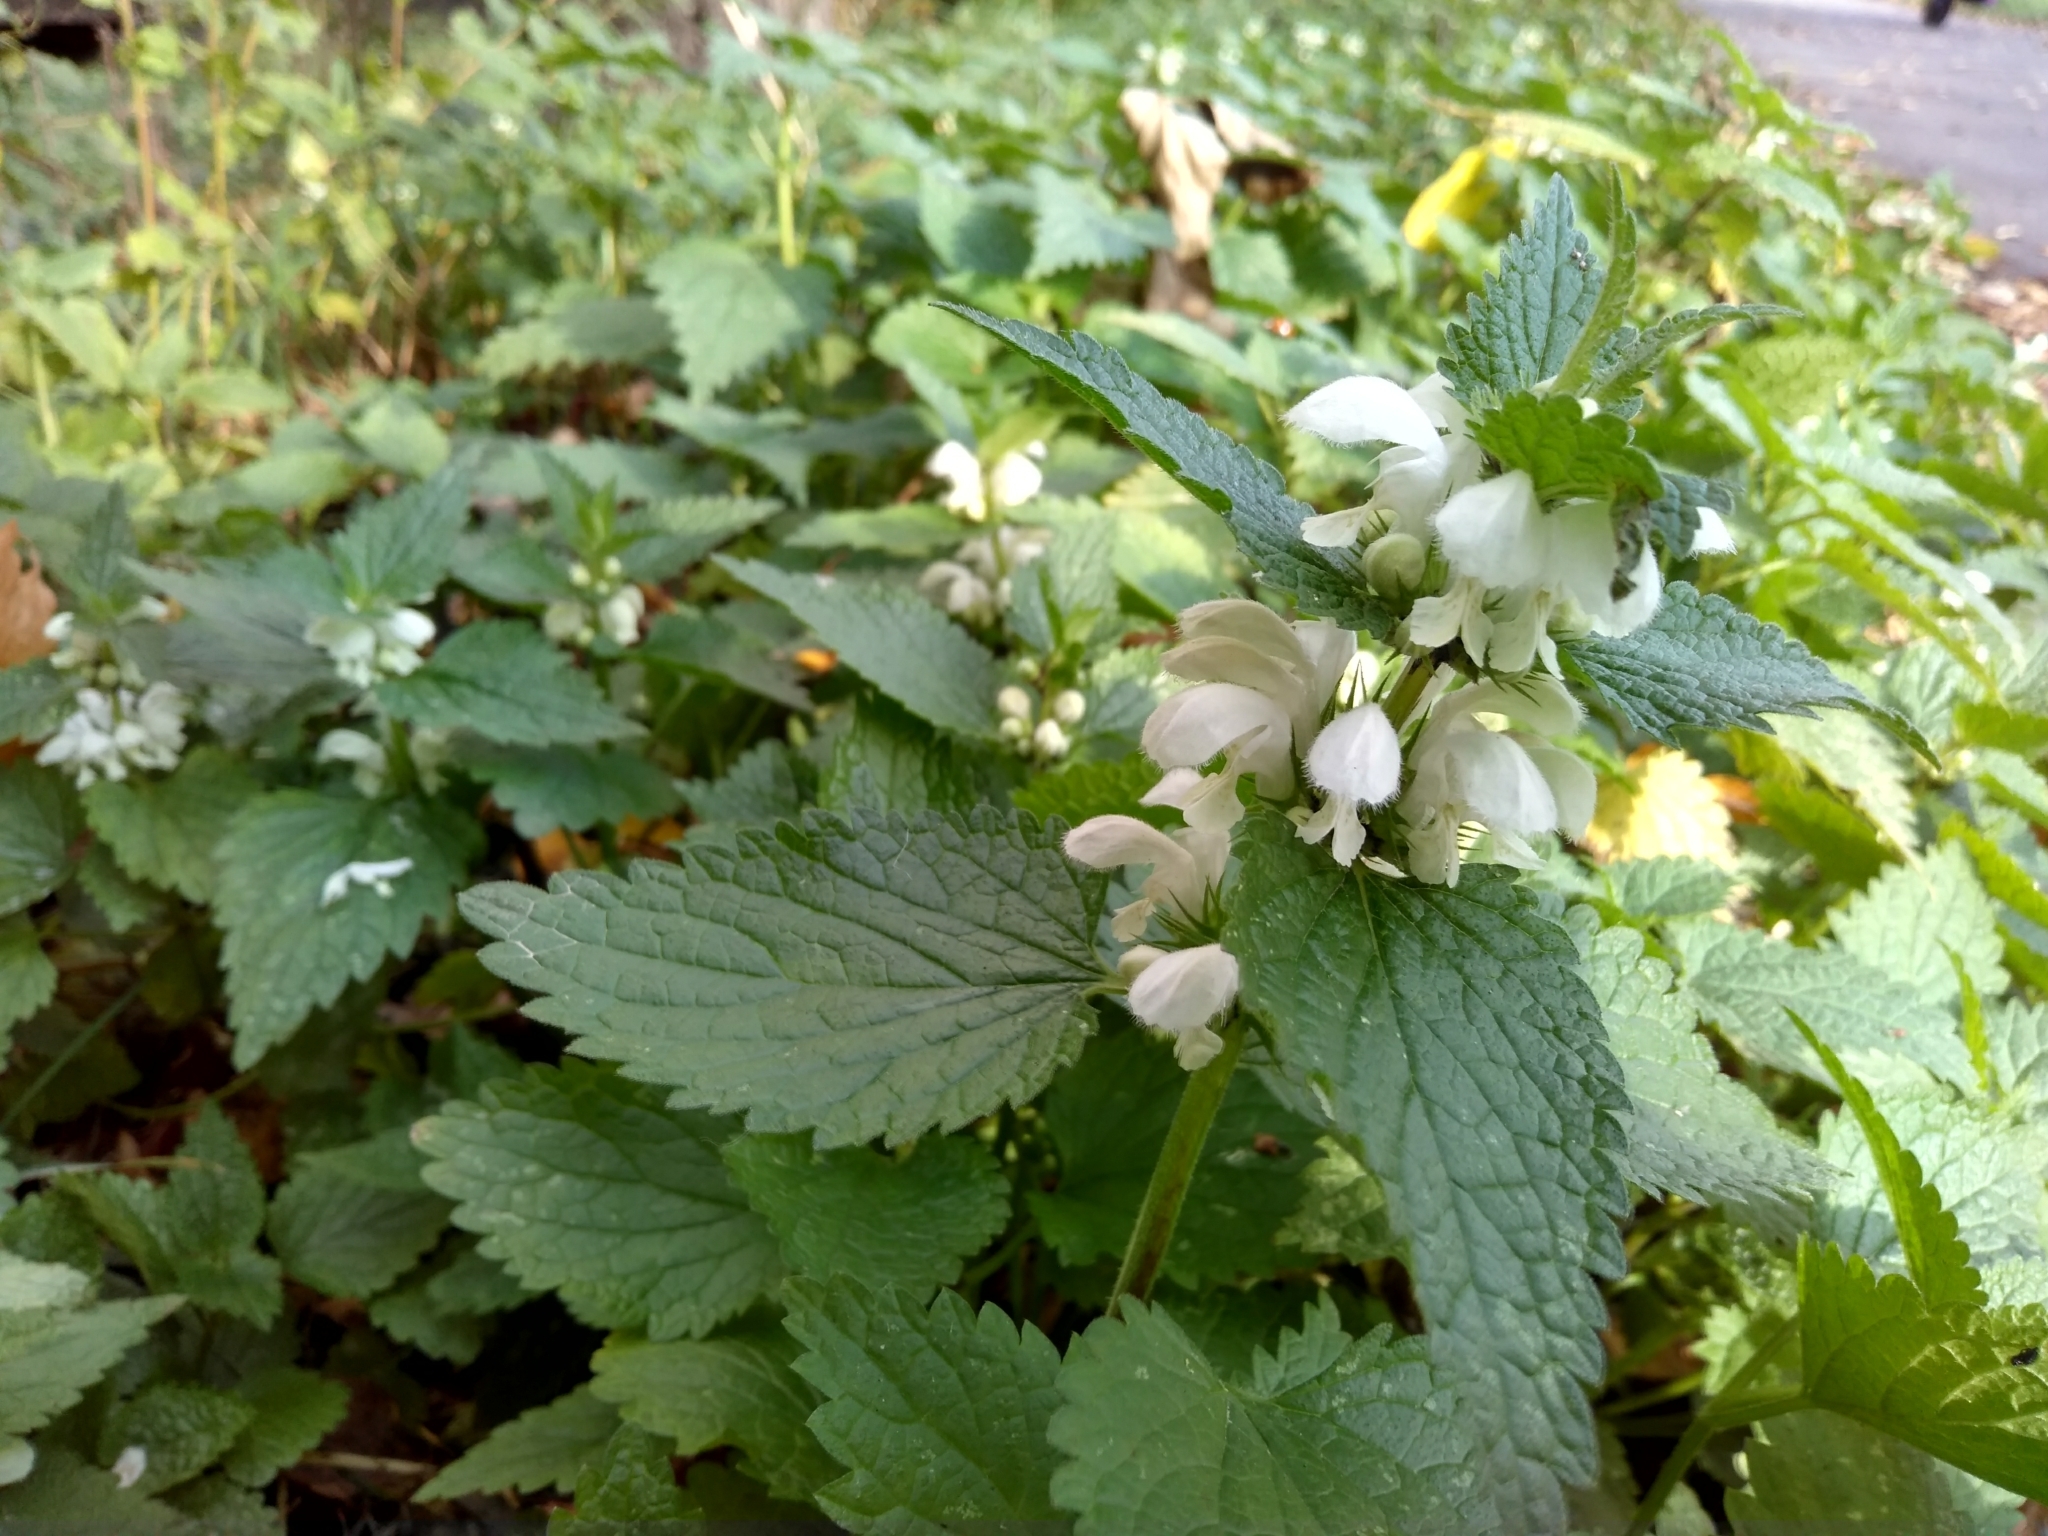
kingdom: Plantae
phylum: Tracheophyta
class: Magnoliopsida
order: Lamiales
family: Lamiaceae
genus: Lamium
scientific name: Lamium album
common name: White dead-nettle
